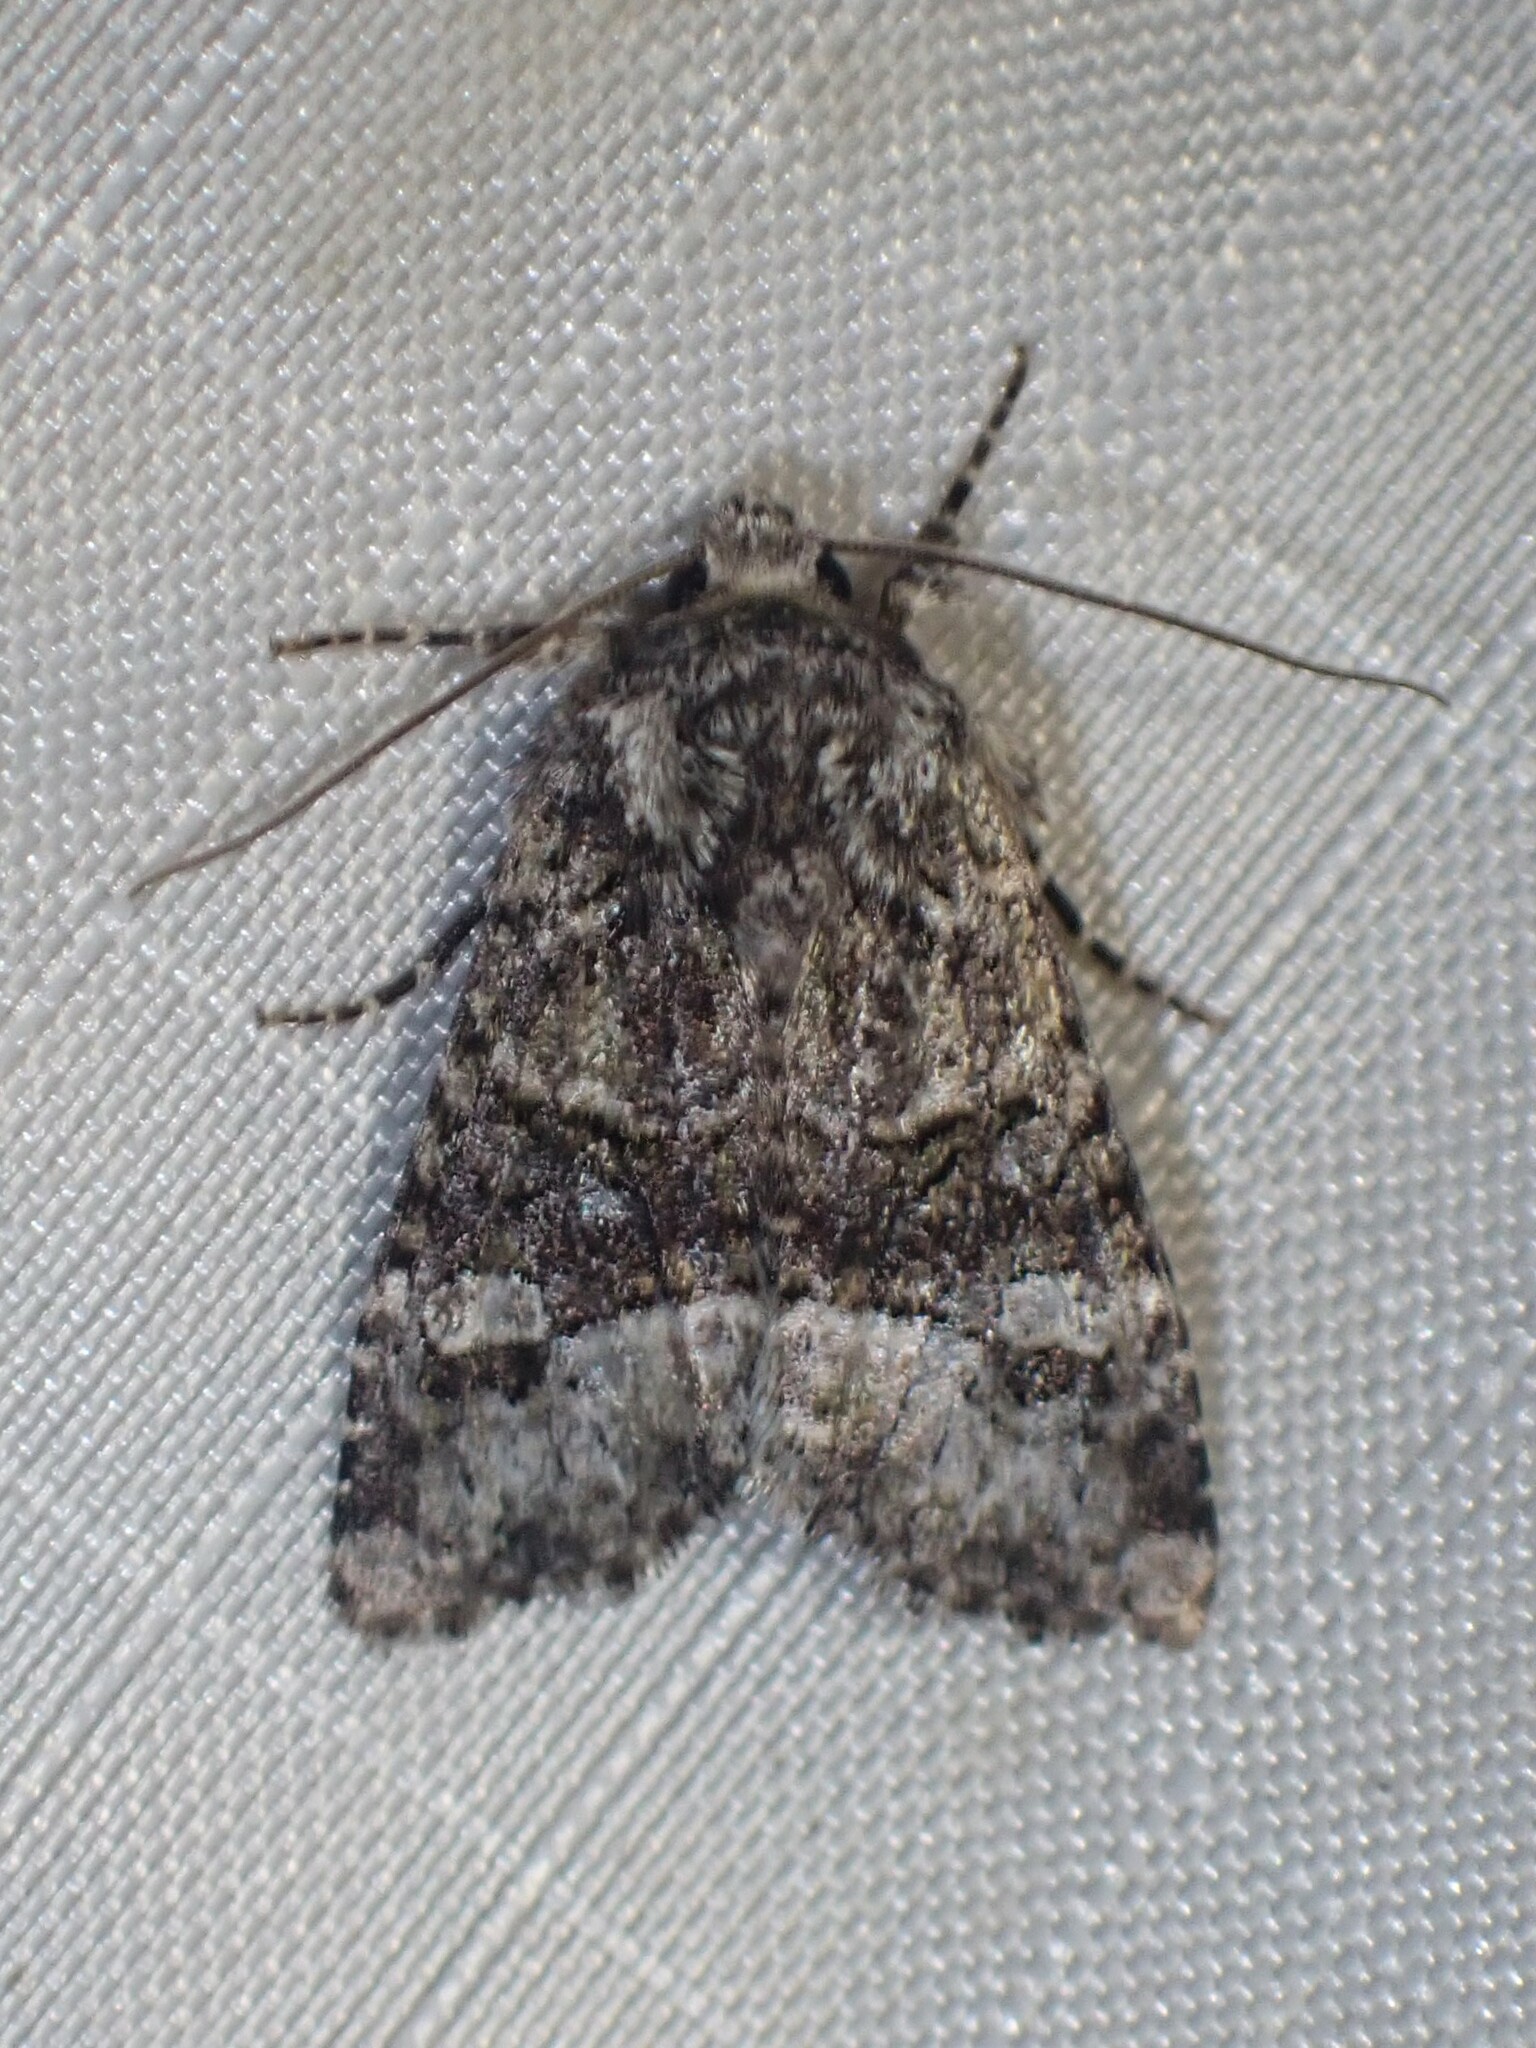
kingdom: Animalia
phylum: Arthropoda
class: Insecta
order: Lepidoptera
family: Noctuidae
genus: Lacinipolia
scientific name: Lacinipolia olivacea
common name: Olive arches moth
